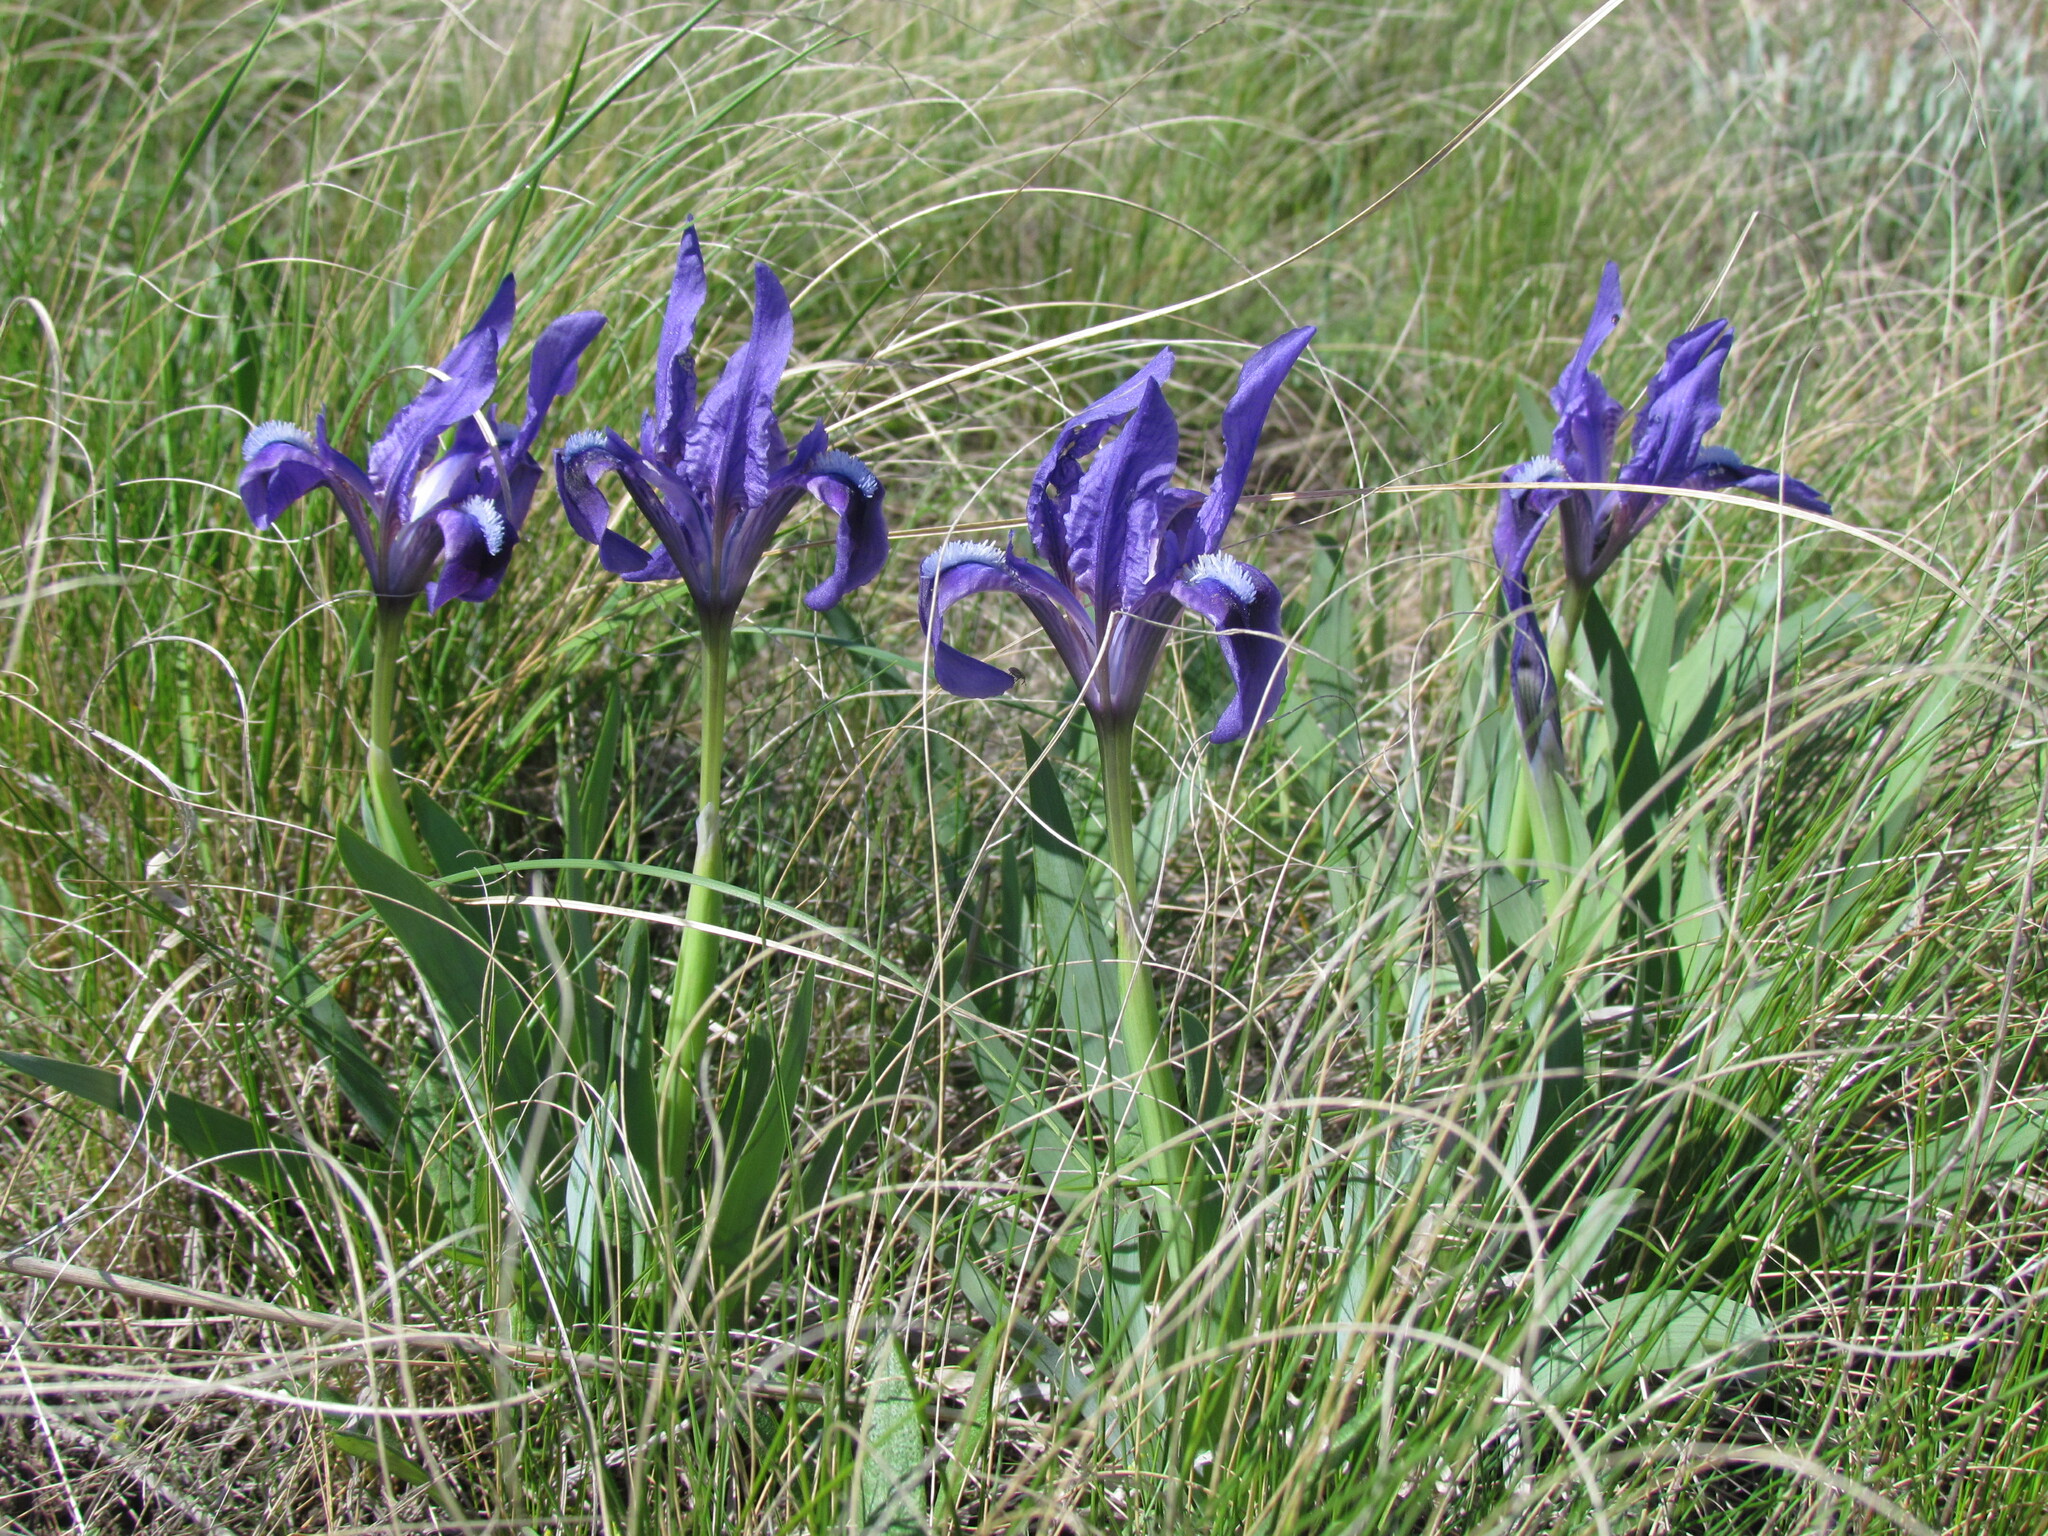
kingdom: Plantae
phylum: Tracheophyta
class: Liliopsida
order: Asparagales
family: Iridaceae
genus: Iris
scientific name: Iris pumila
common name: Dwarf iris
